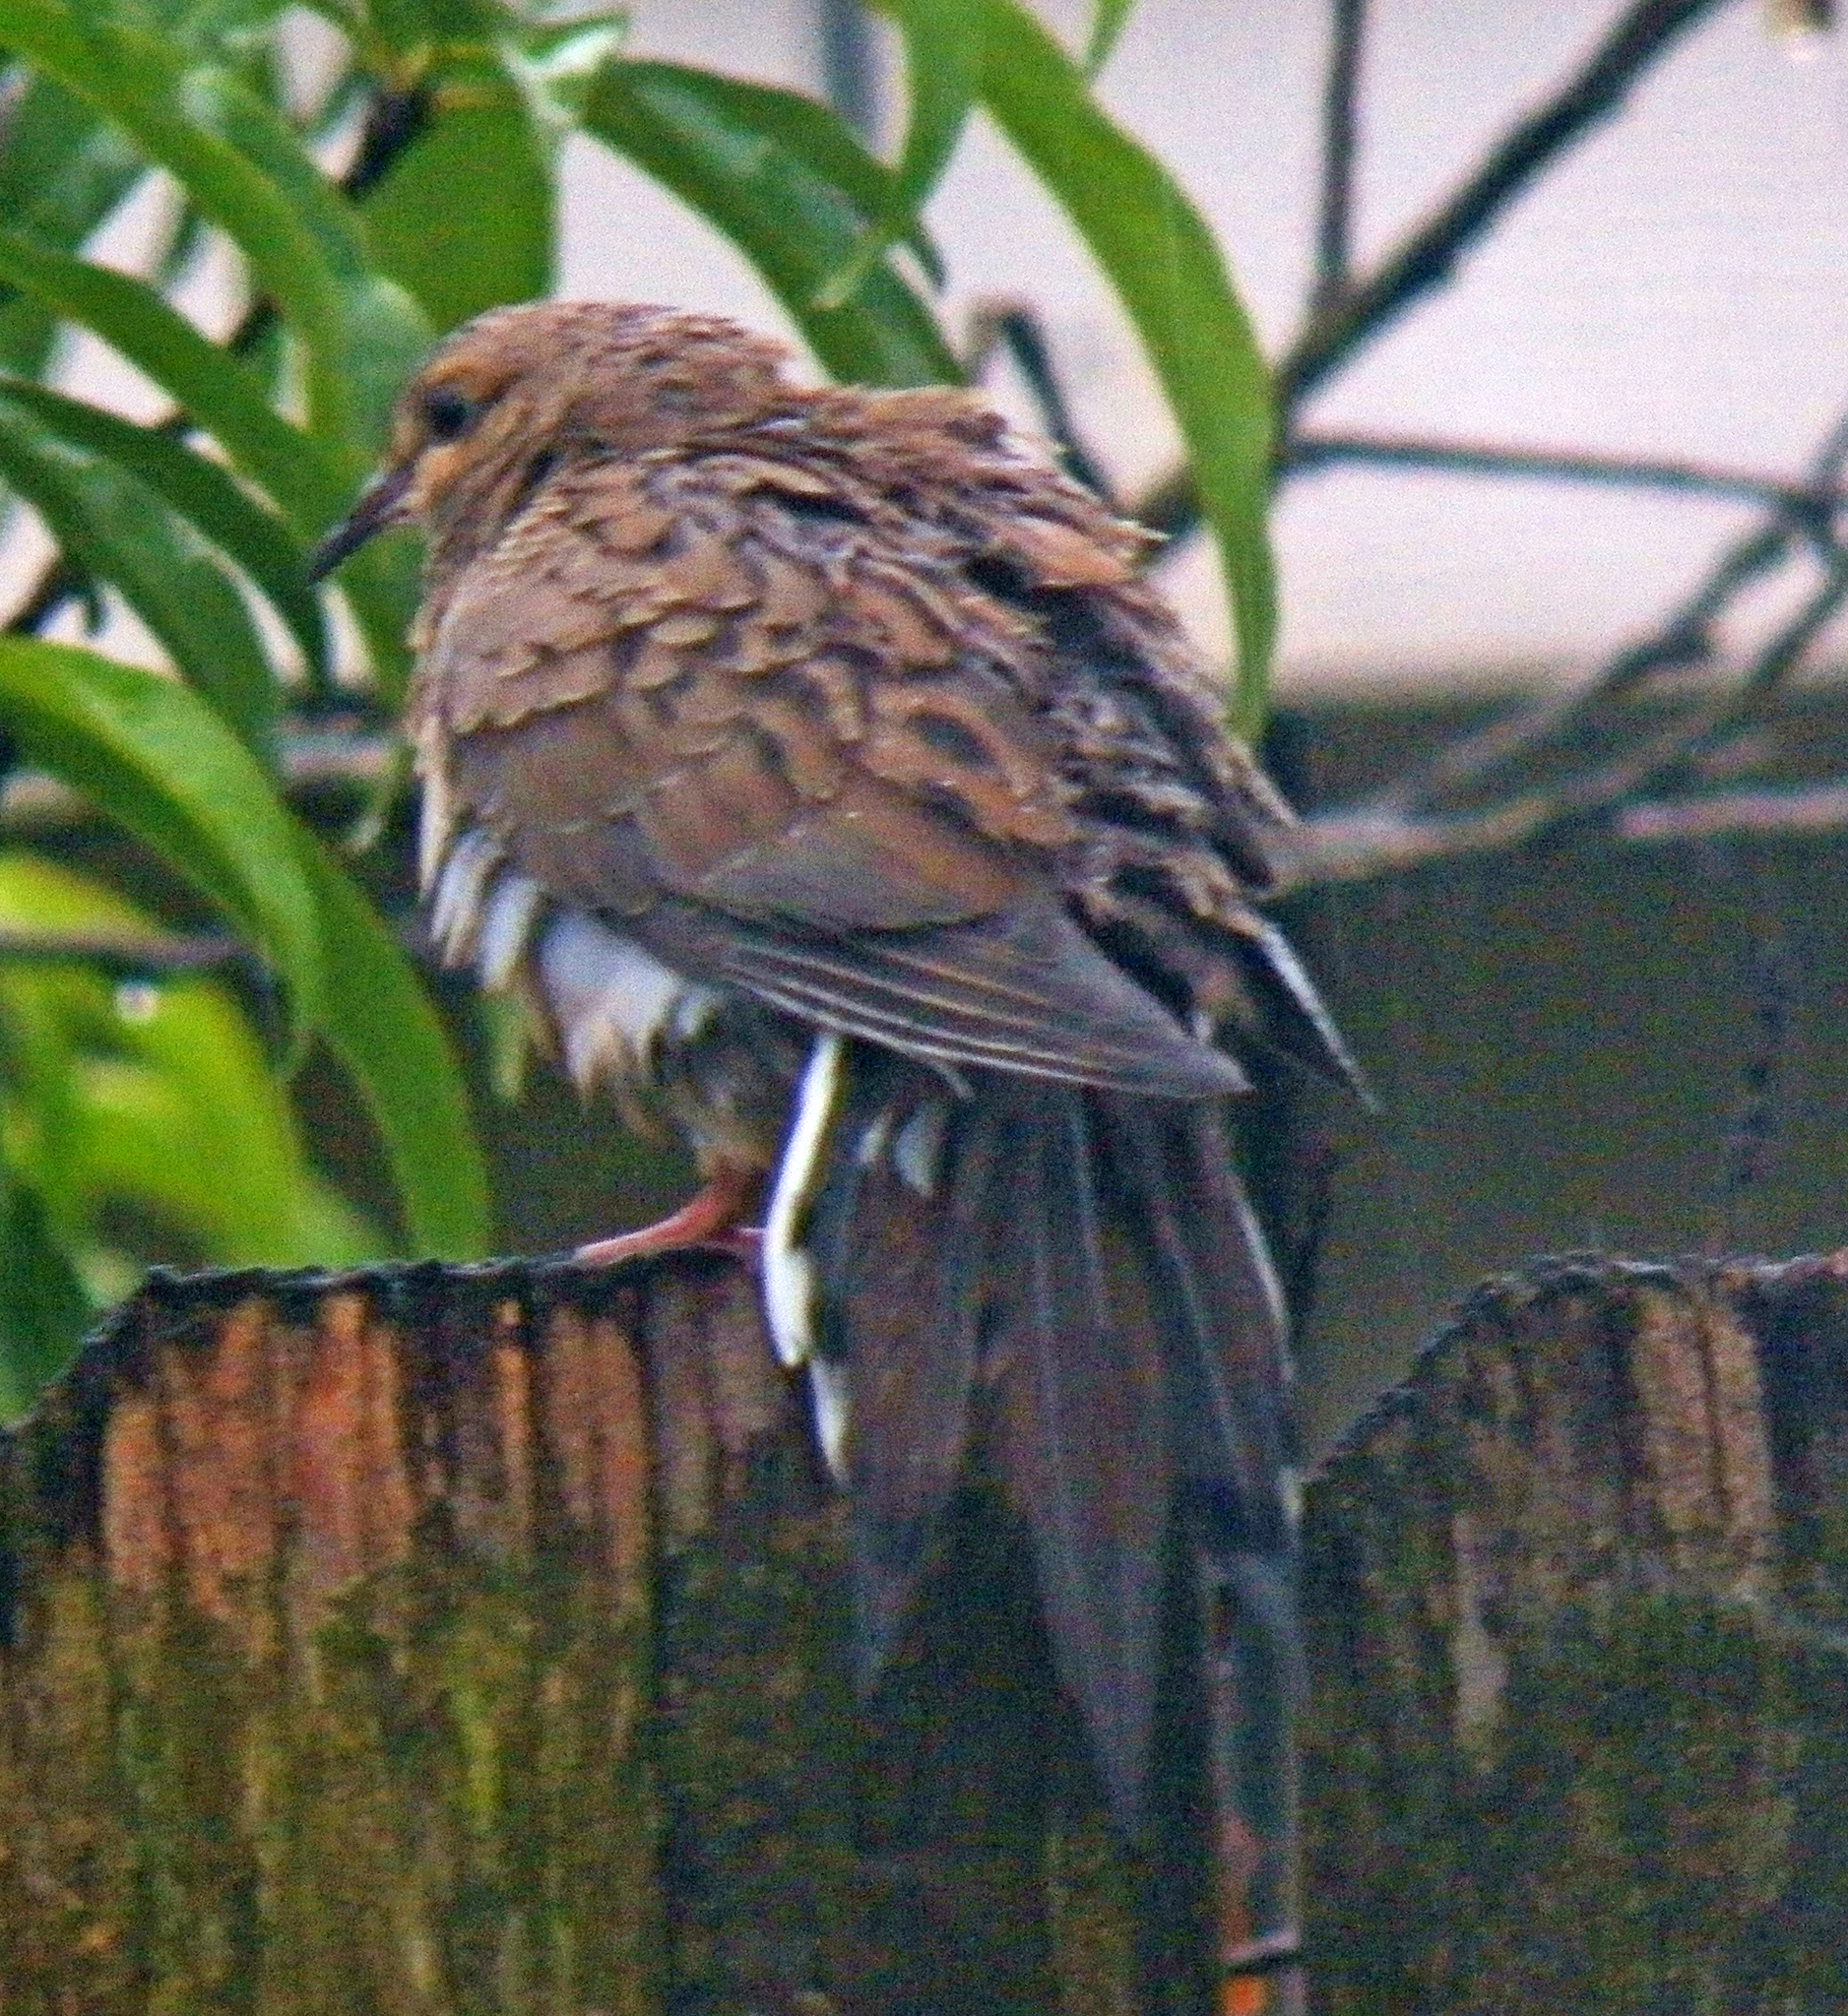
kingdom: Animalia
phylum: Chordata
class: Aves
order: Columbiformes
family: Columbidae
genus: Zenaida
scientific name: Zenaida macroura
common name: Mourning dove
